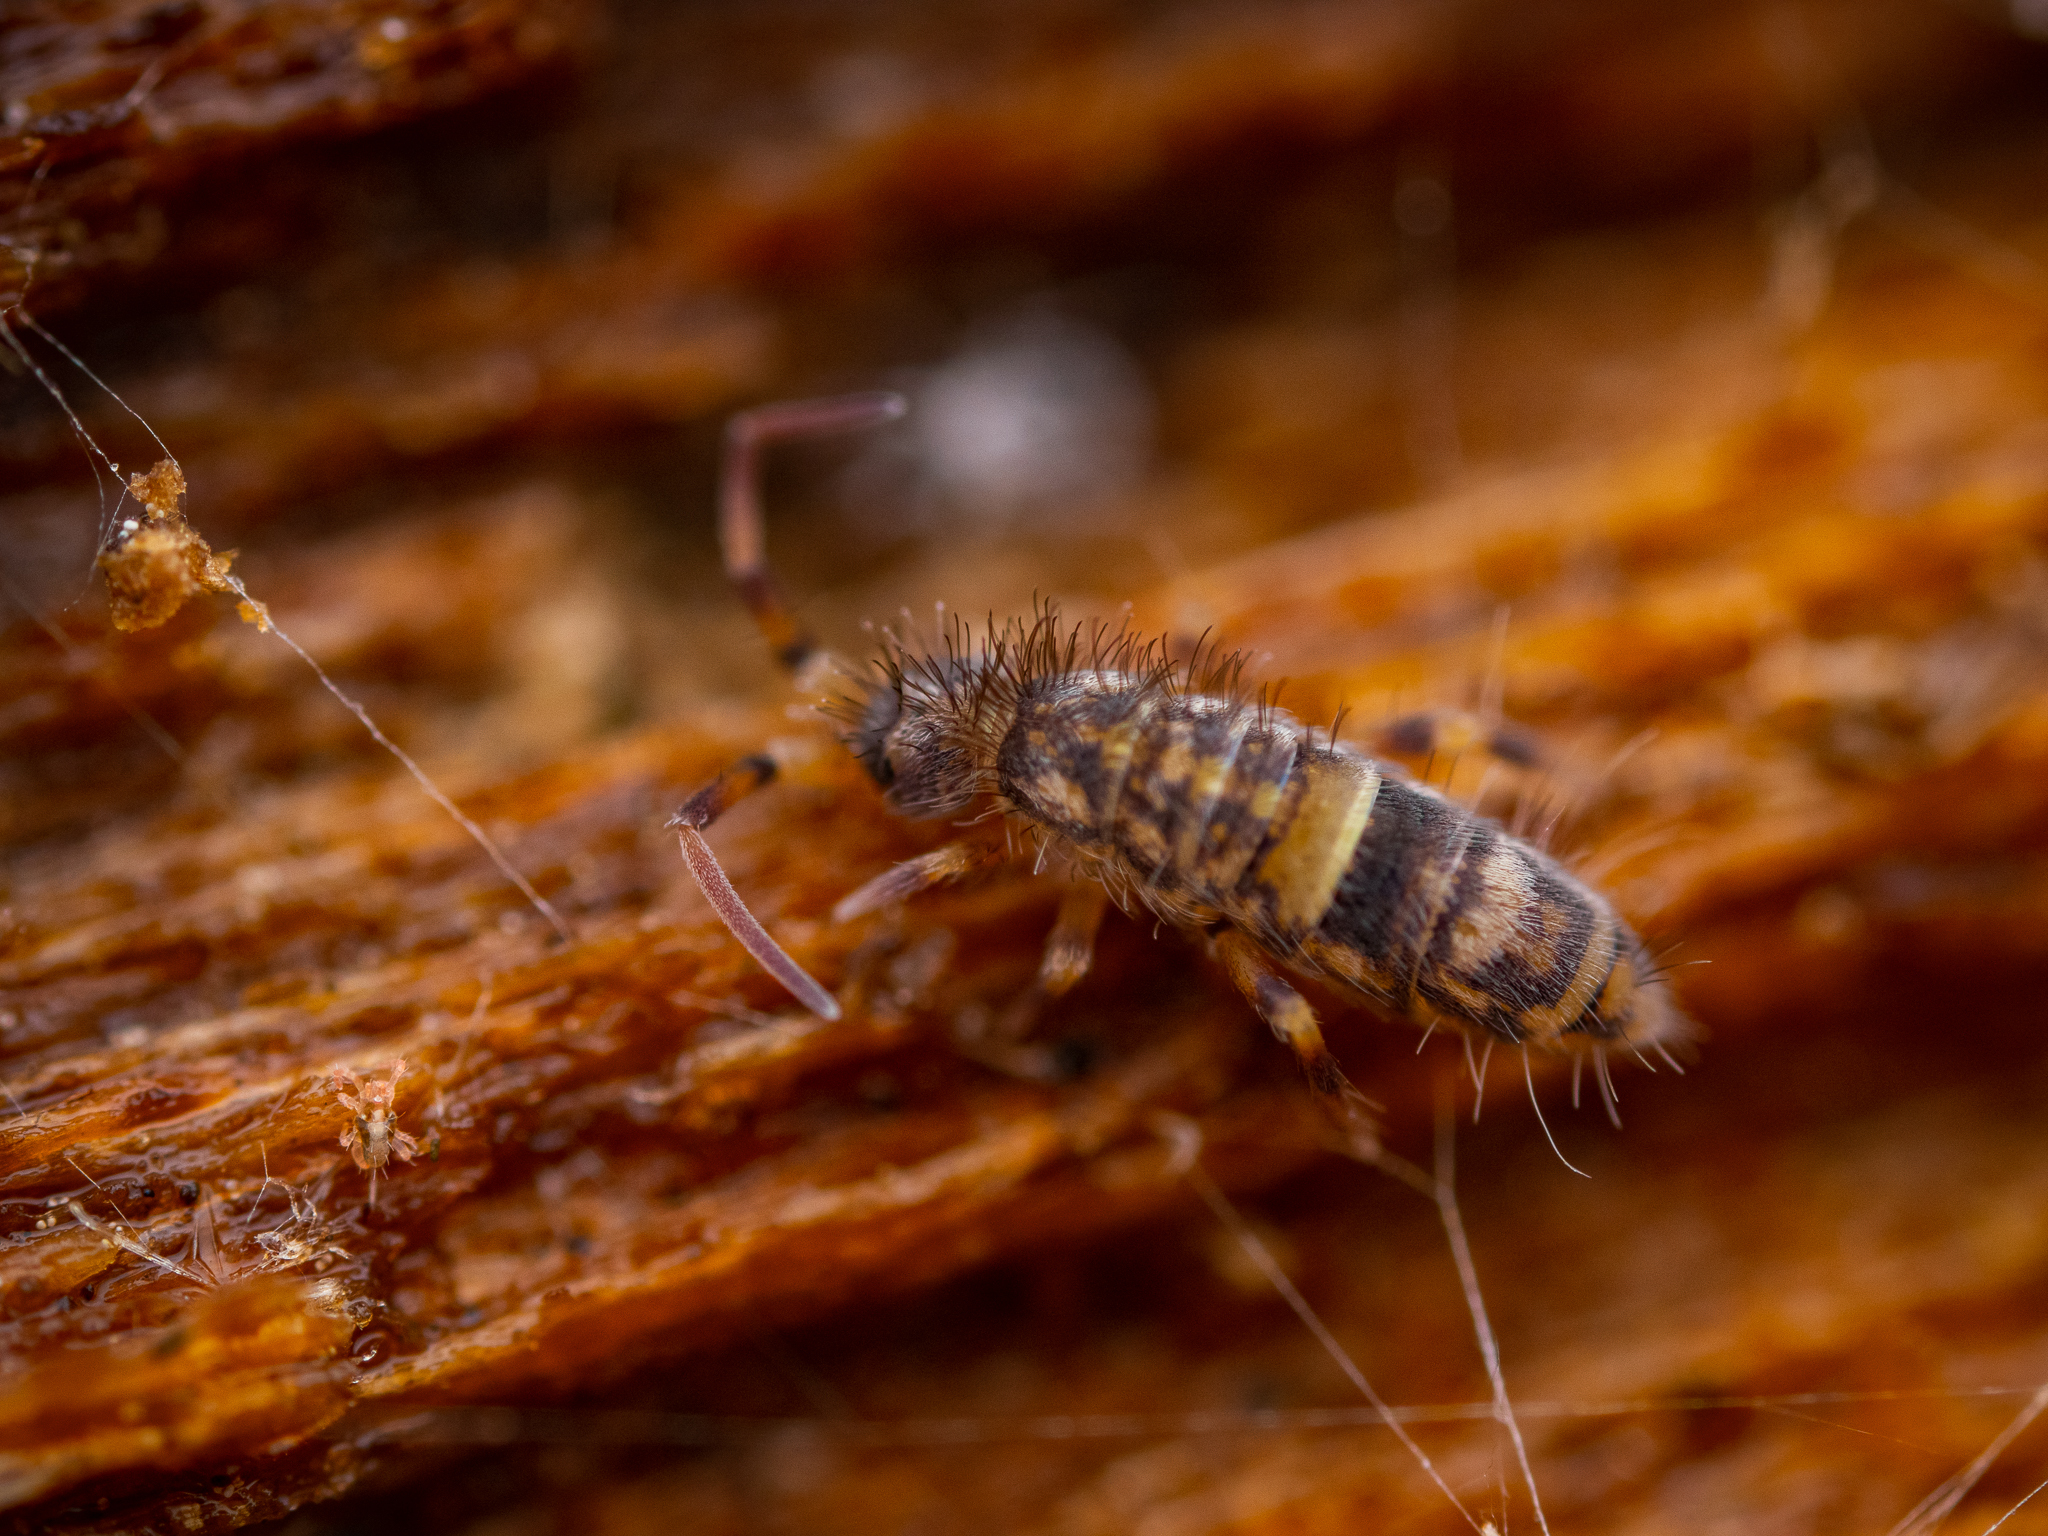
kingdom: Animalia
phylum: Arthropoda
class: Collembola
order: Entomobryomorpha
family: Orchesellidae
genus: Orchesella
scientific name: Orchesella cincta
